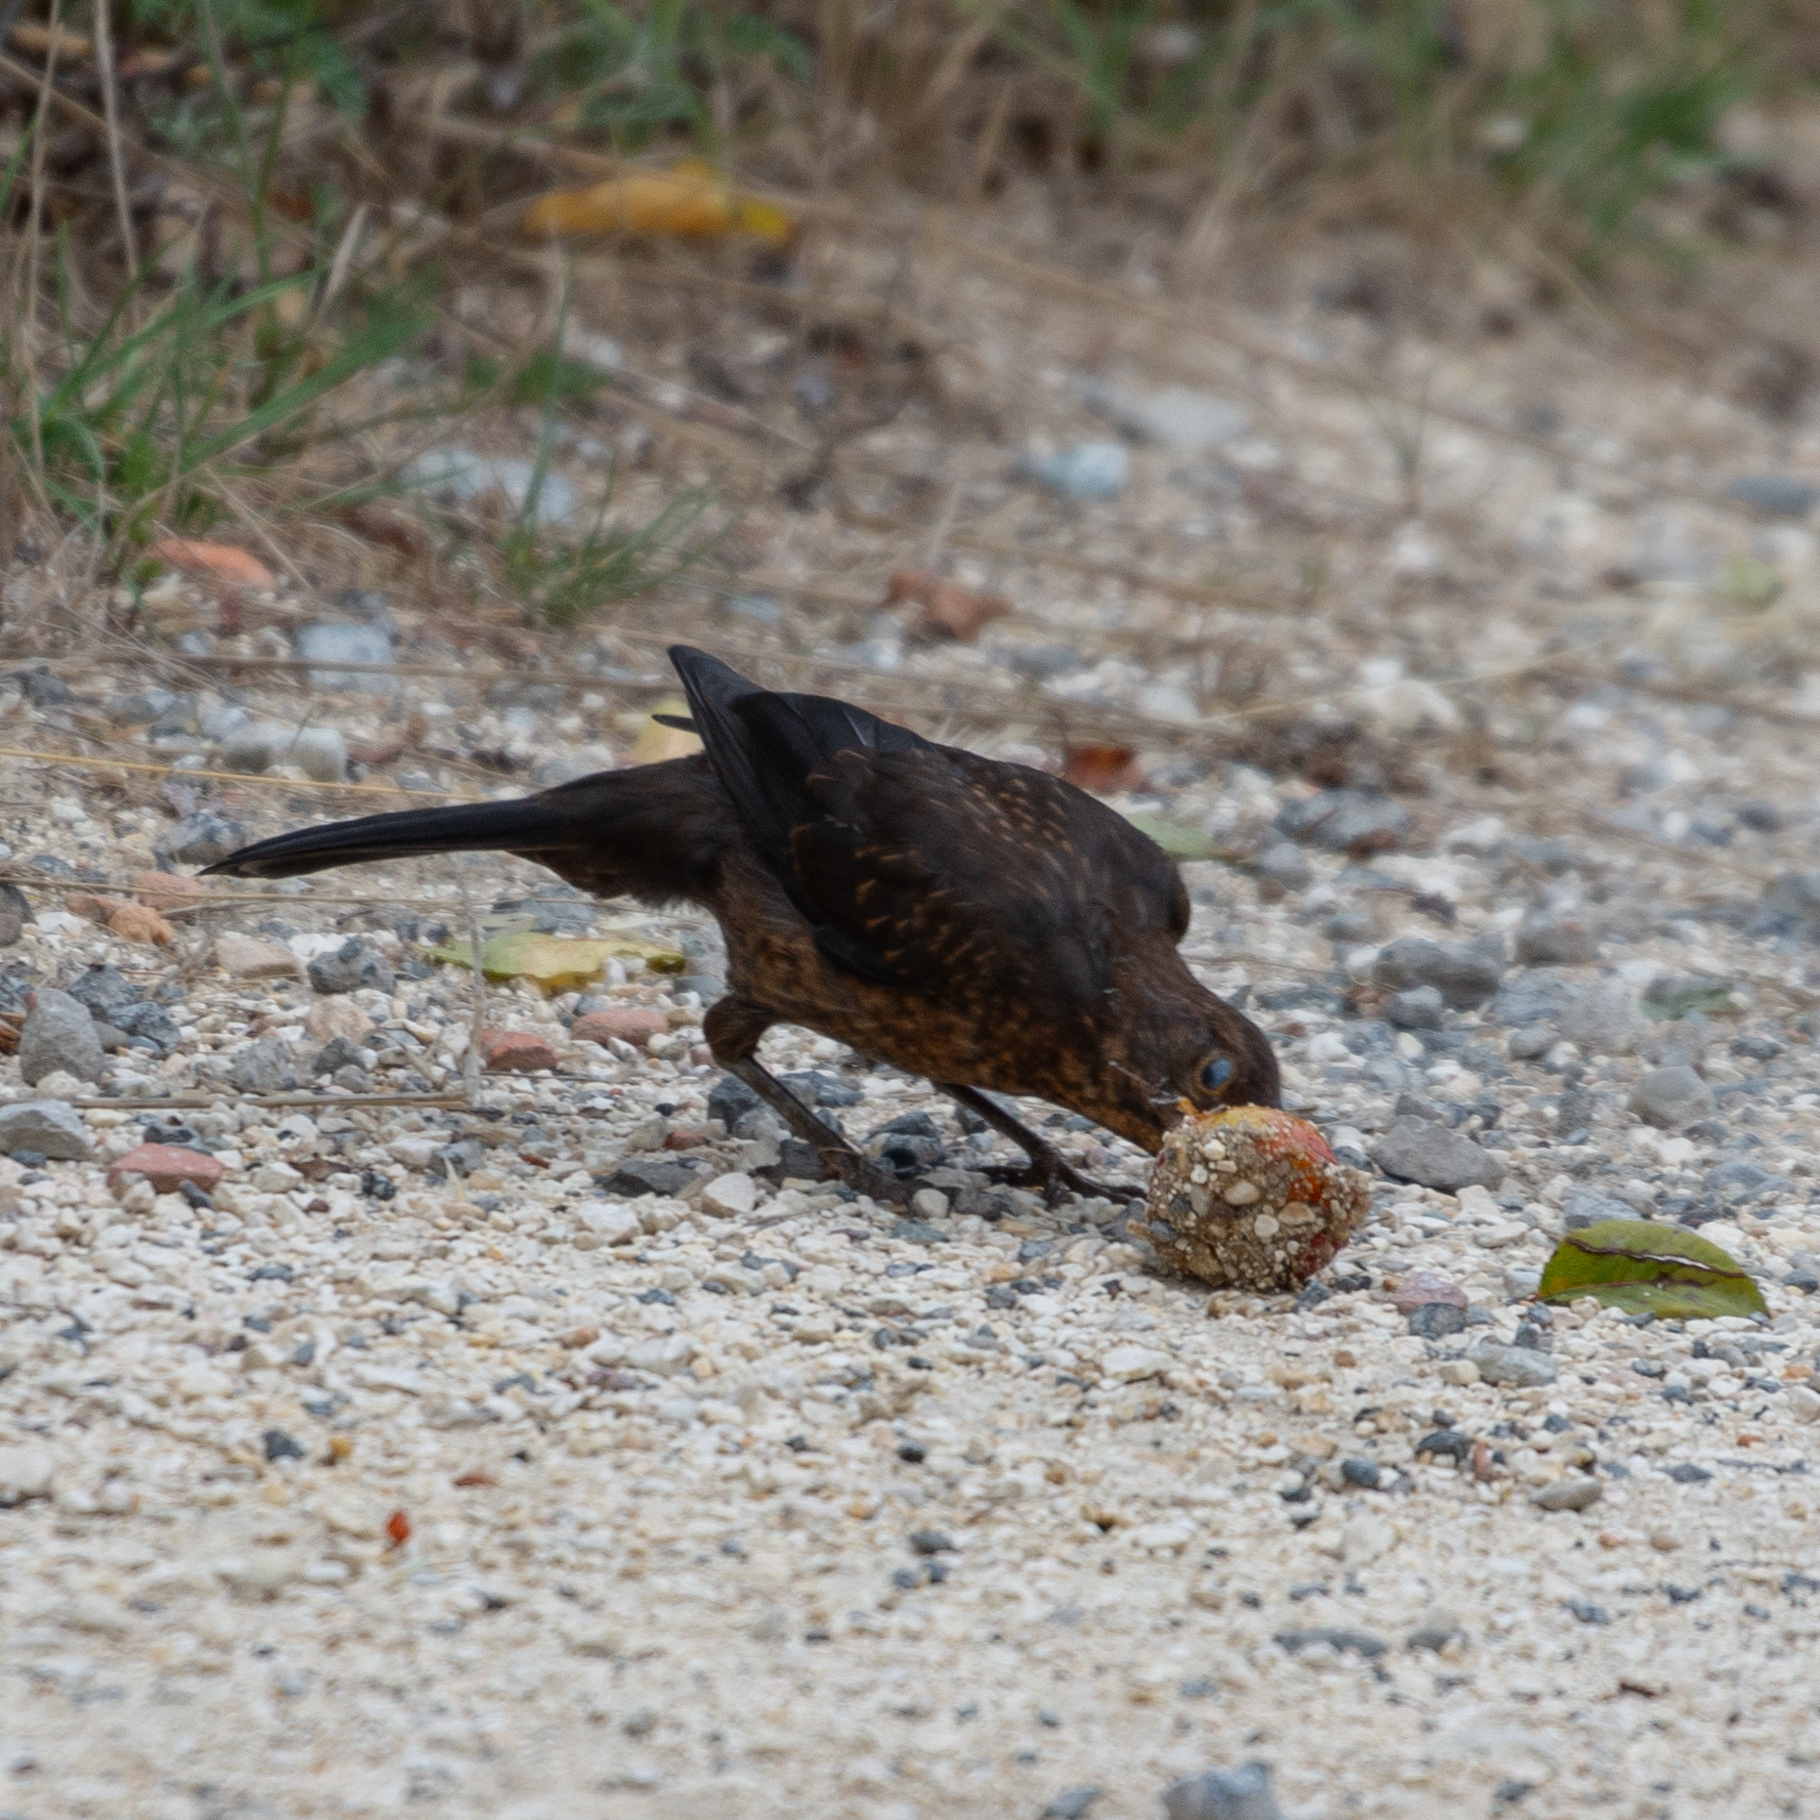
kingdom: Animalia
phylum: Chordata
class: Aves
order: Passeriformes
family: Turdidae
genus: Turdus
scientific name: Turdus merula
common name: Common blackbird
